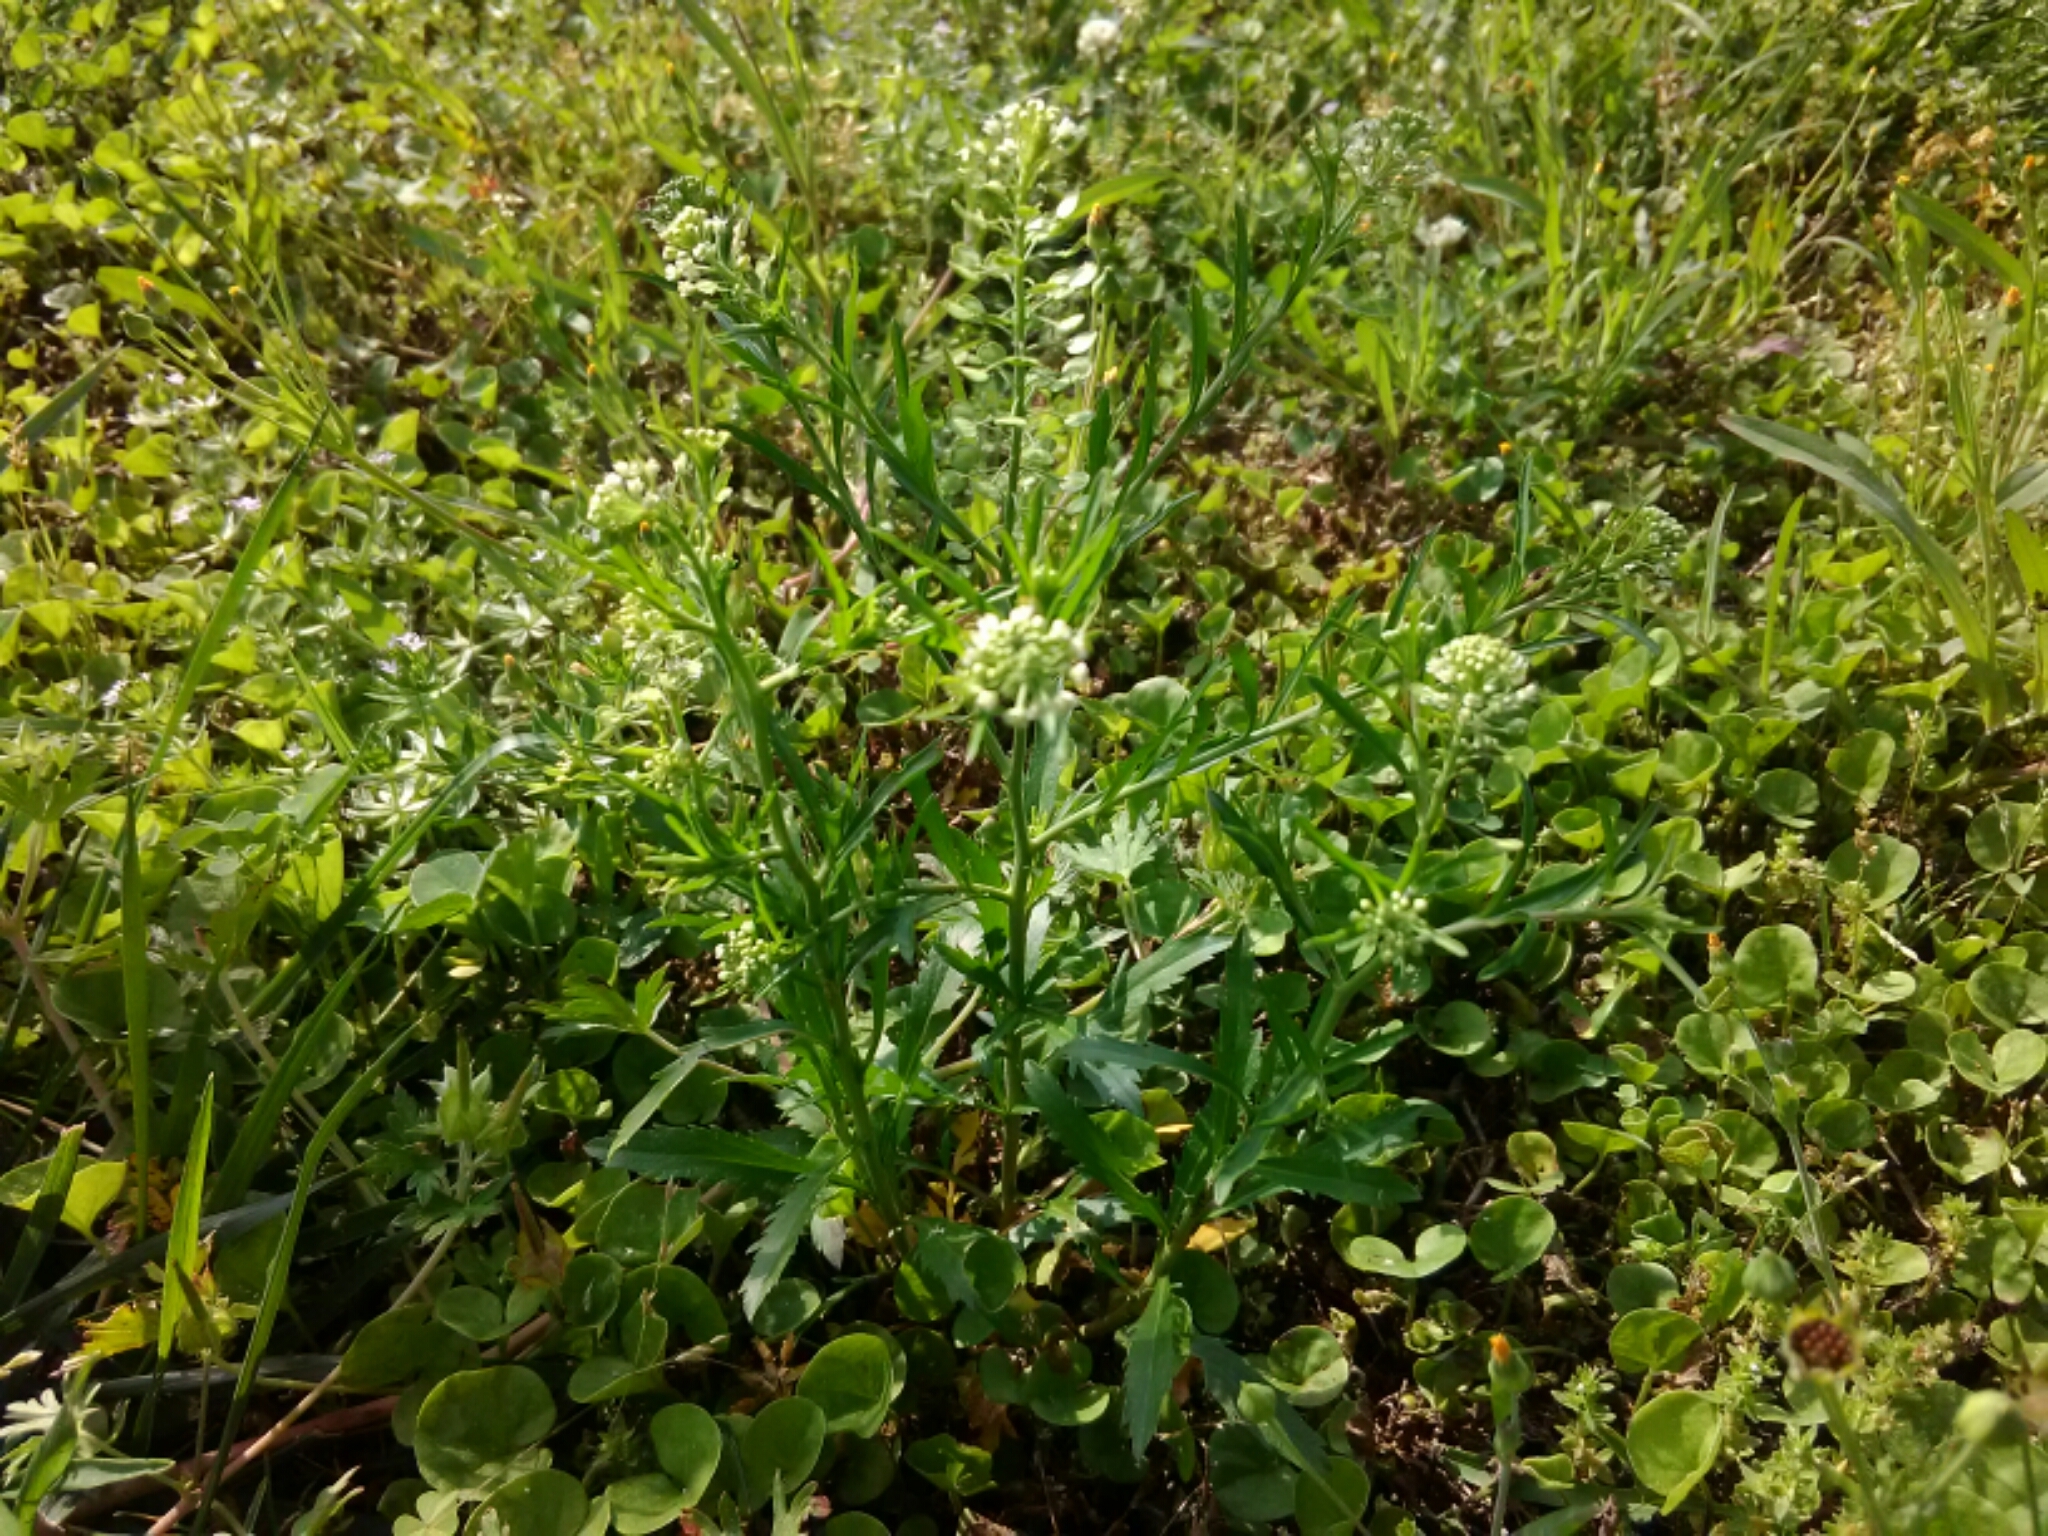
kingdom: Plantae
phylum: Tracheophyta
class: Magnoliopsida
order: Brassicales
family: Brassicaceae
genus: Lepidium
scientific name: Lepidium virginicum
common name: Least pepperwort
